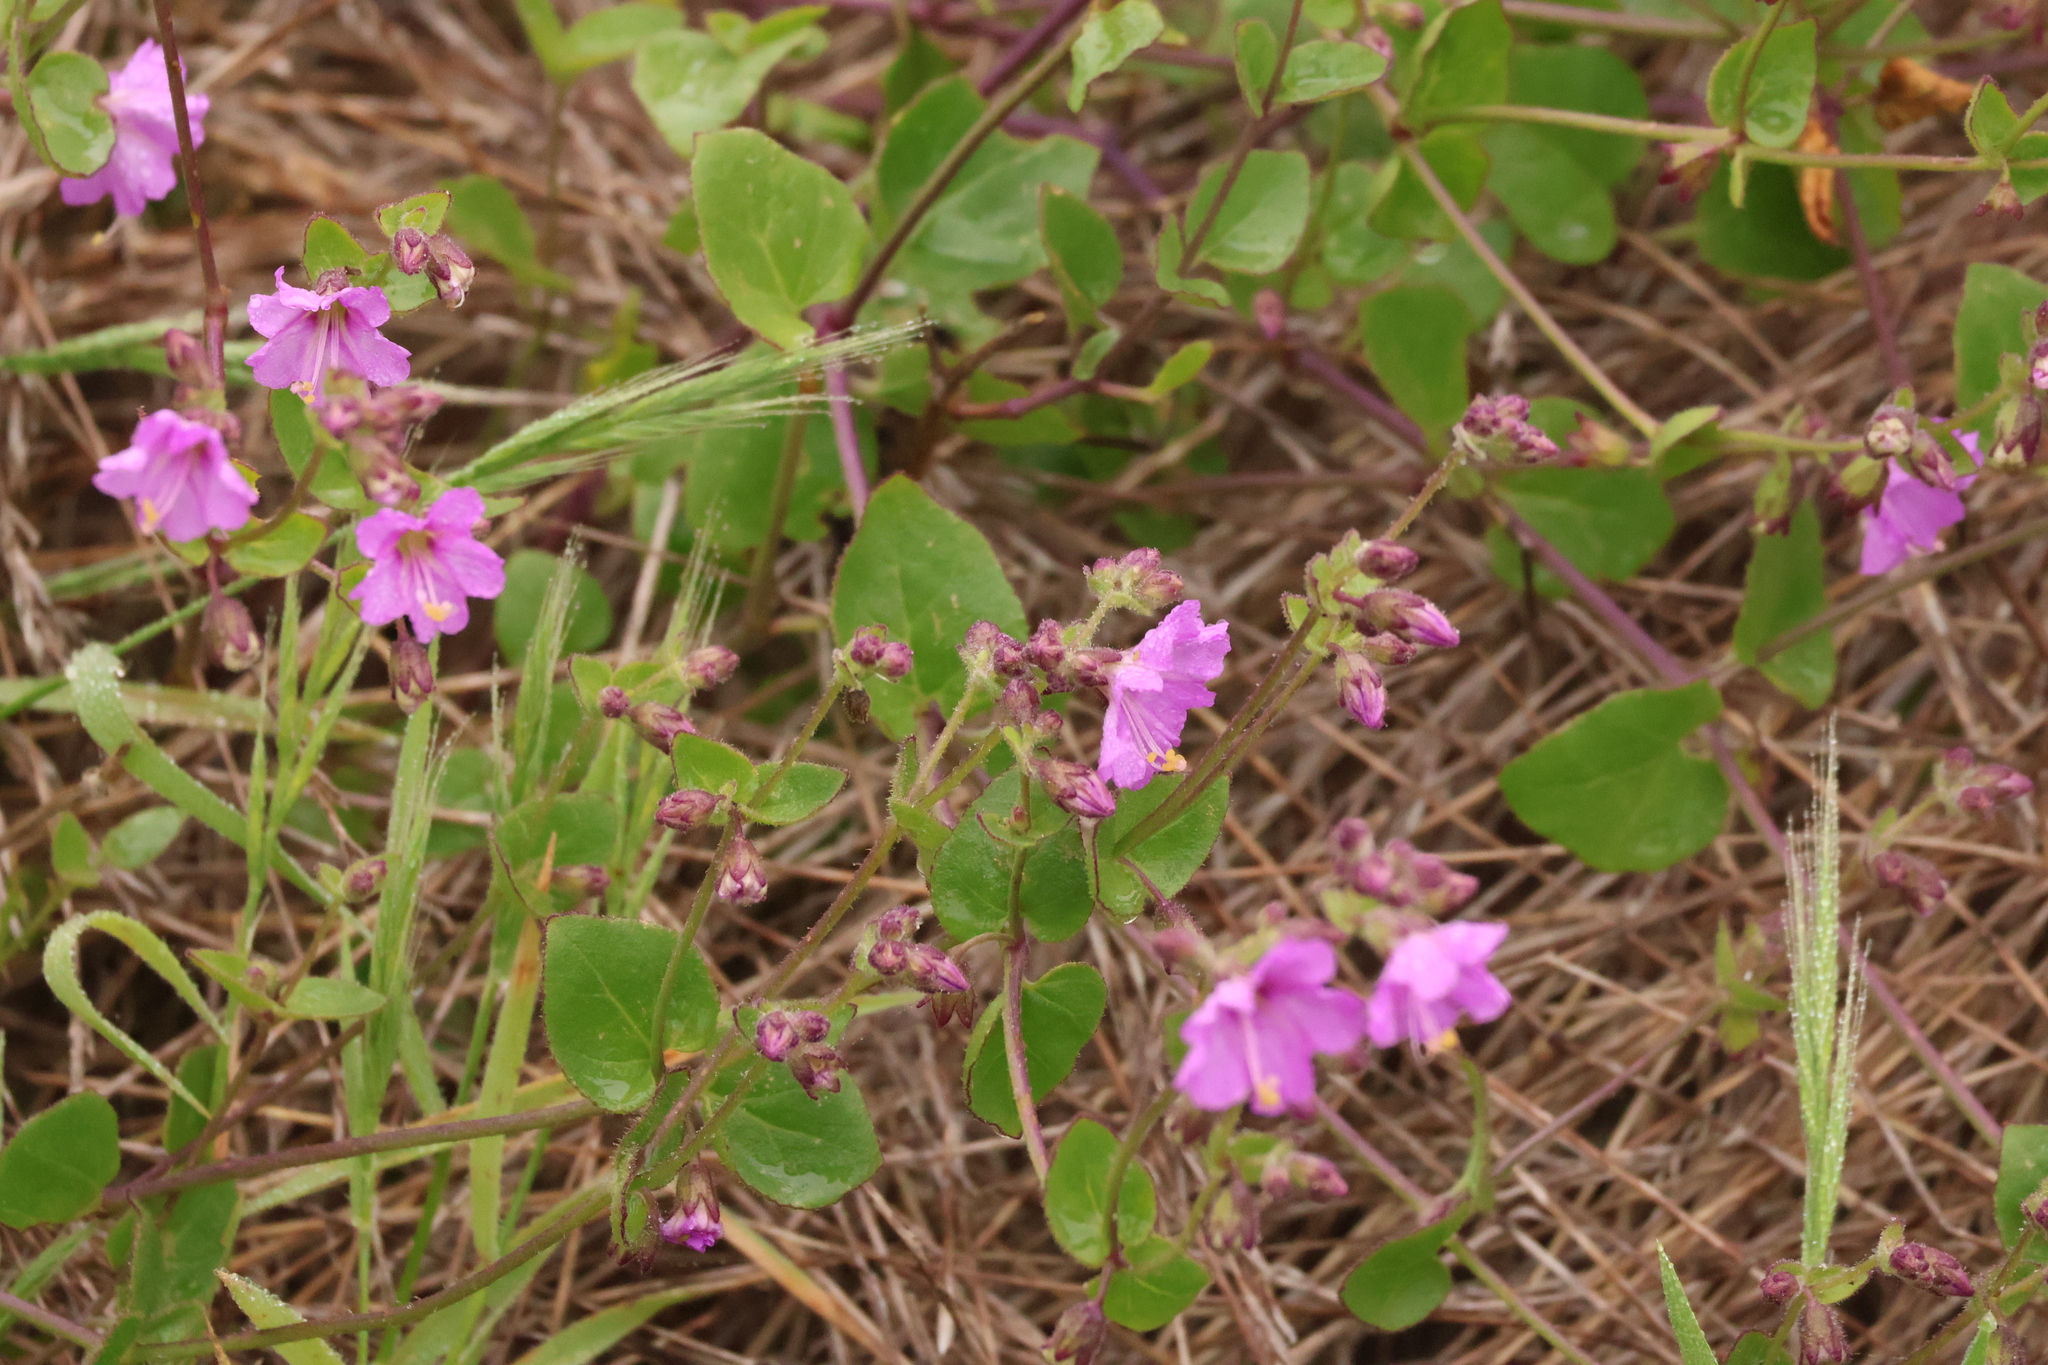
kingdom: Plantae
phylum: Tracheophyta
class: Magnoliopsida
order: Caryophyllales
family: Nyctaginaceae
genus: Mirabilis
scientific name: Mirabilis laevis
